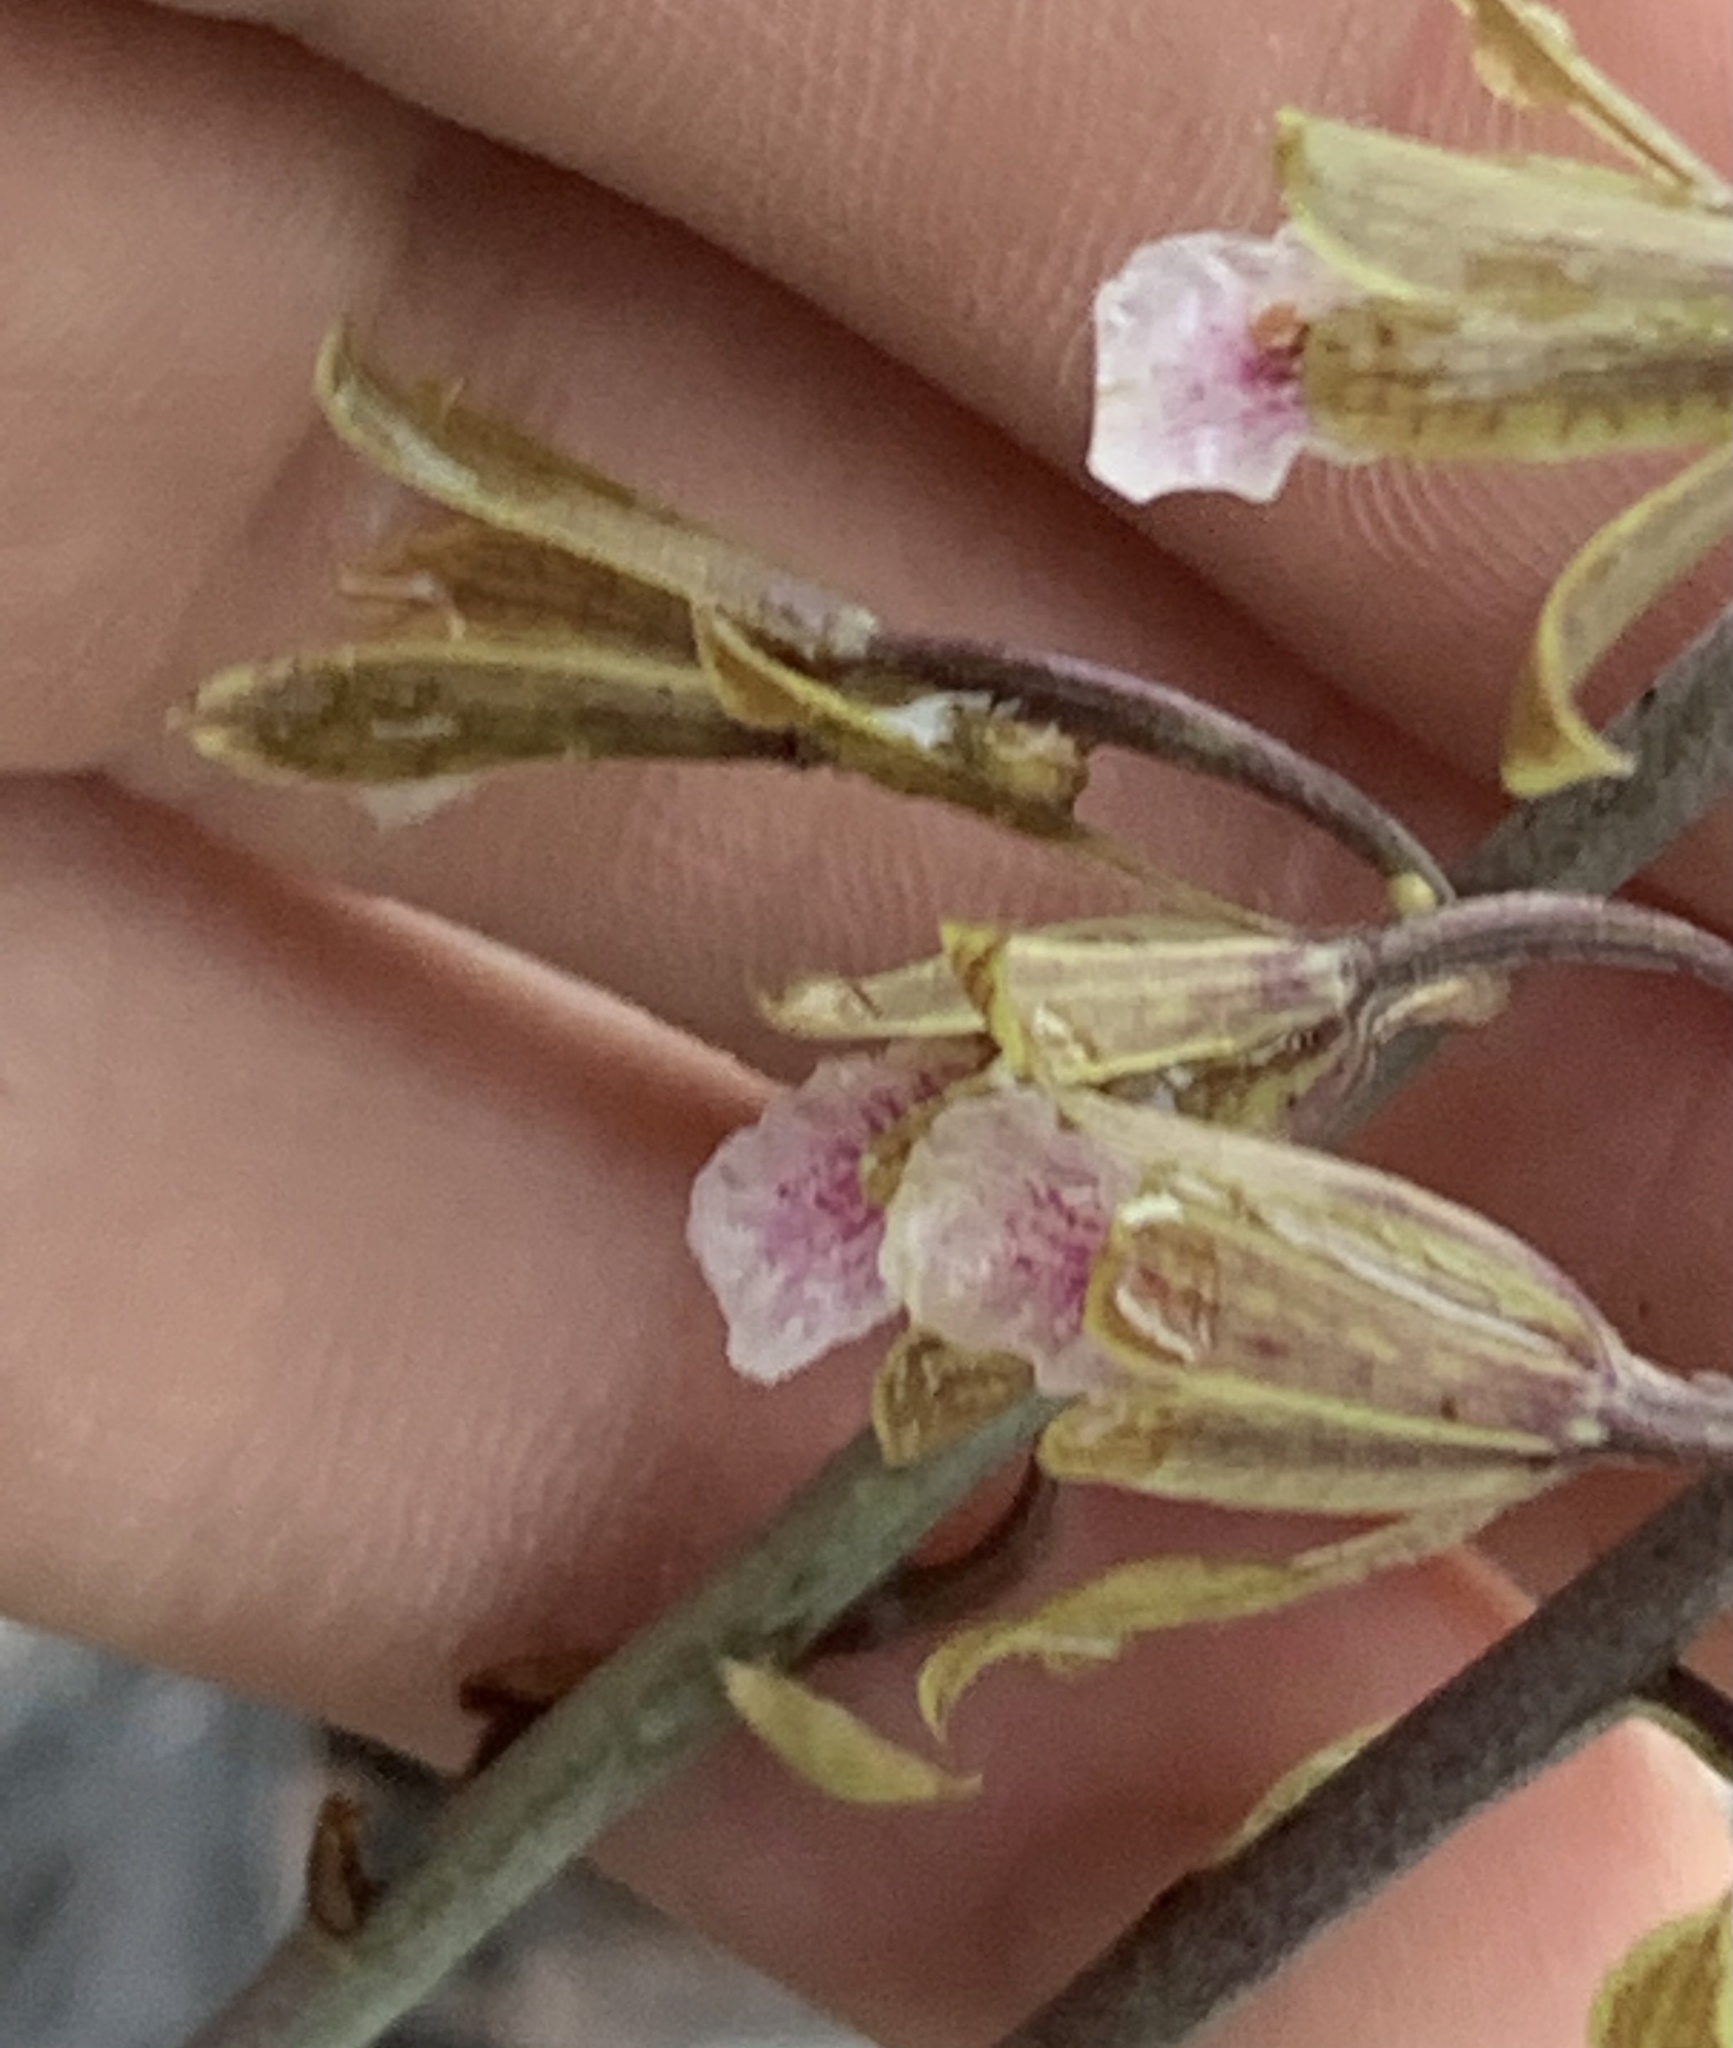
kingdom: Plantae
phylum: Tracheophyta
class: Liliopsida
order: Asparagales
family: Orchidaceae
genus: Eulophia
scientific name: Eulophia graminea
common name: Orchid
